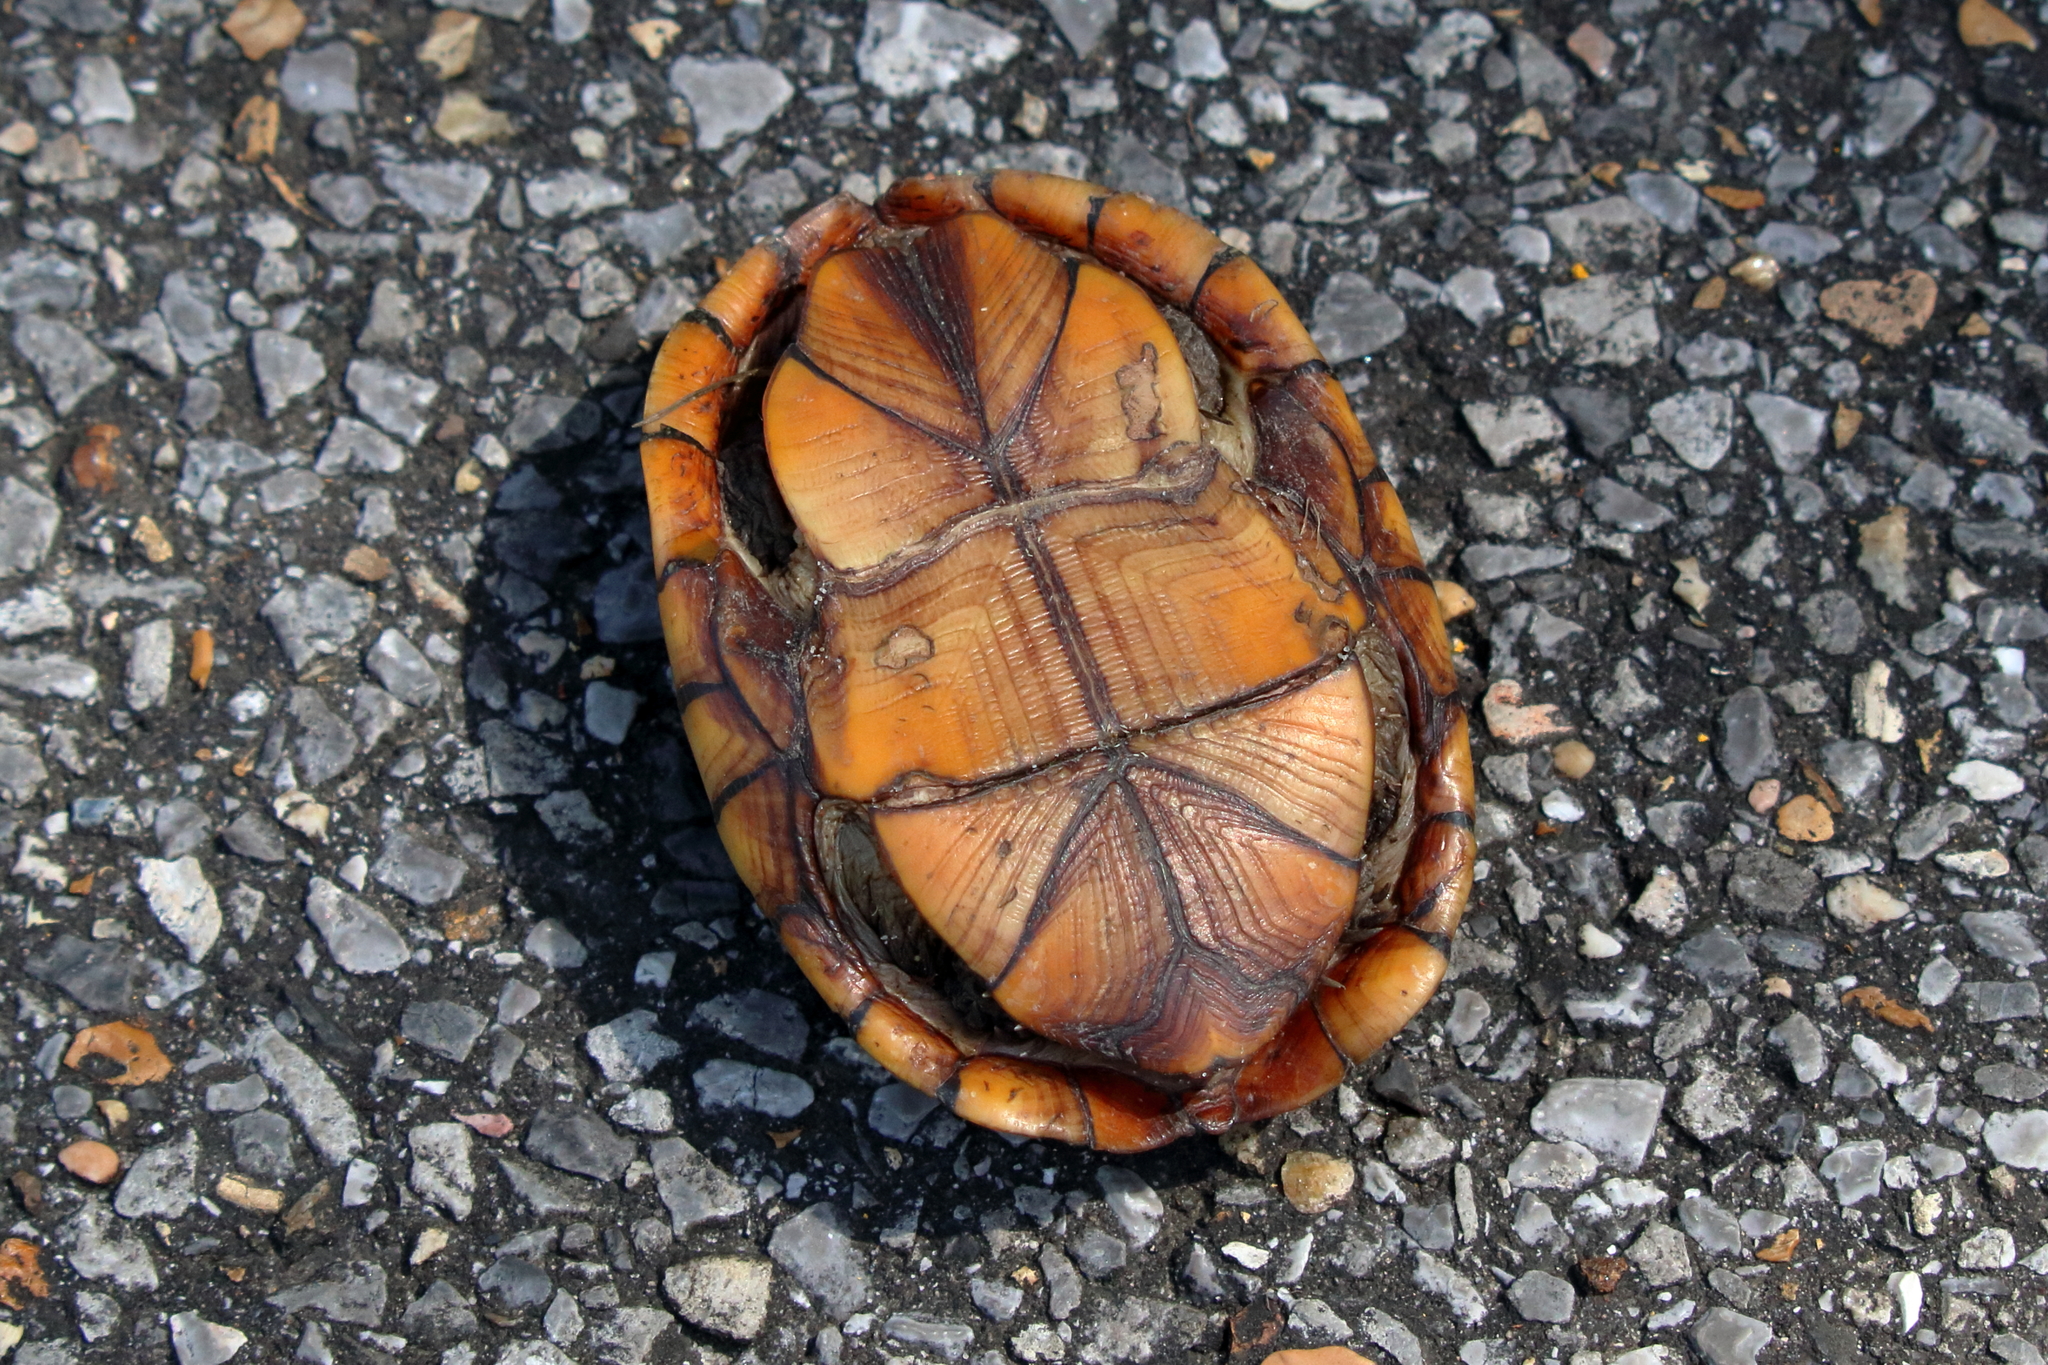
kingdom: Animalia
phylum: Chordata
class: Testudines
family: Kinosternidae
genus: Kinosternon
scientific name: Kinosternon subrubrum
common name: Eastern mud turtle
